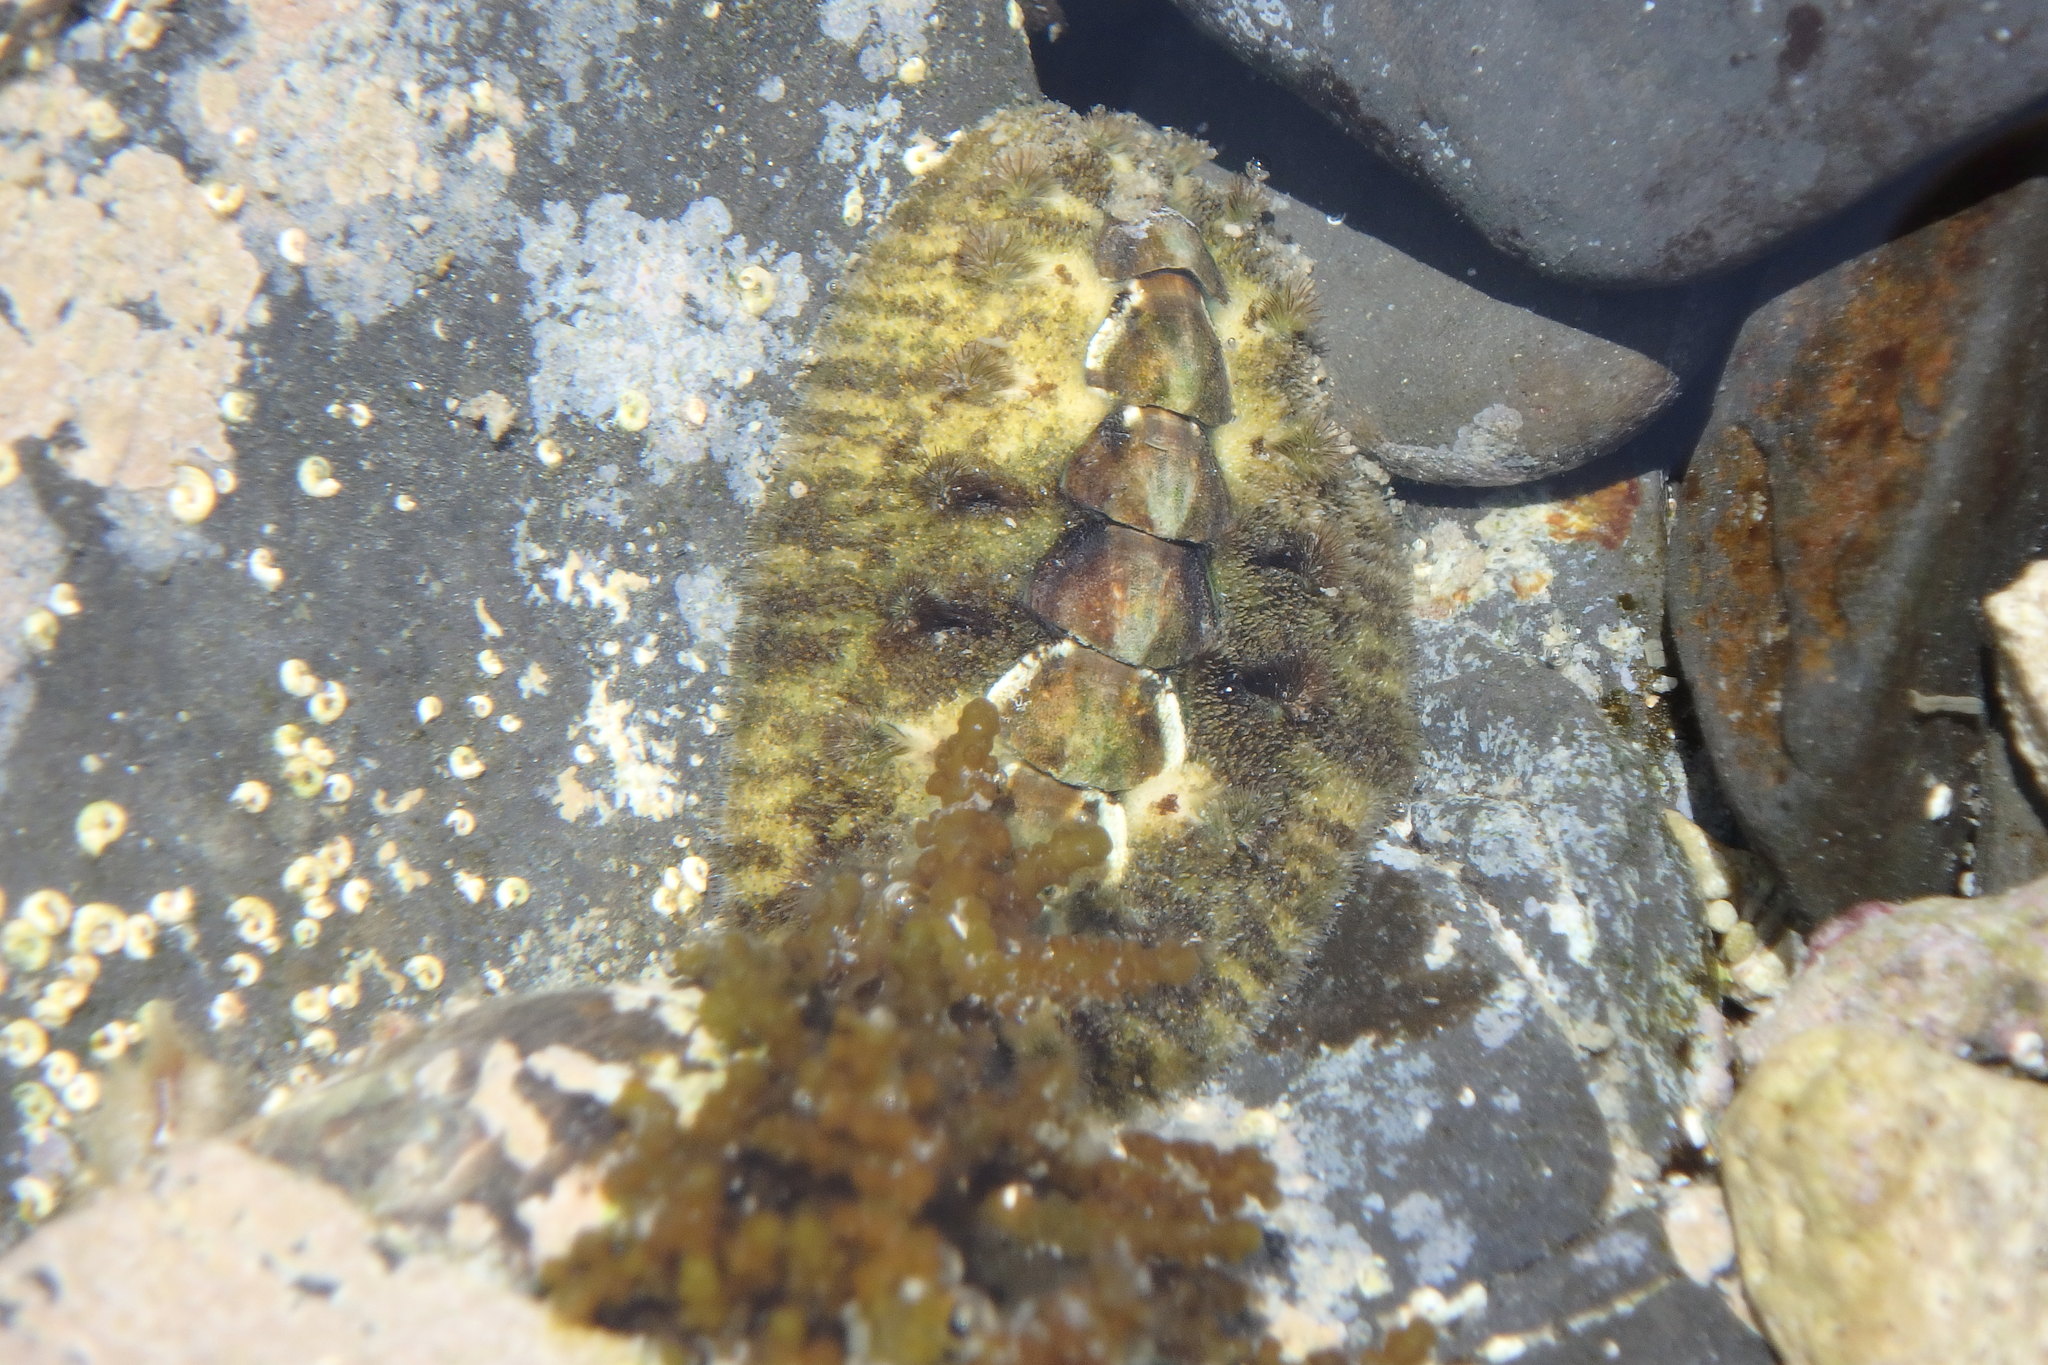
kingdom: Animalia
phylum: Mollusca
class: Polyplacophora
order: Chitonida
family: Acanthochitonidae
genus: Acanthochitona
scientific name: Acanthochitona defilippii
